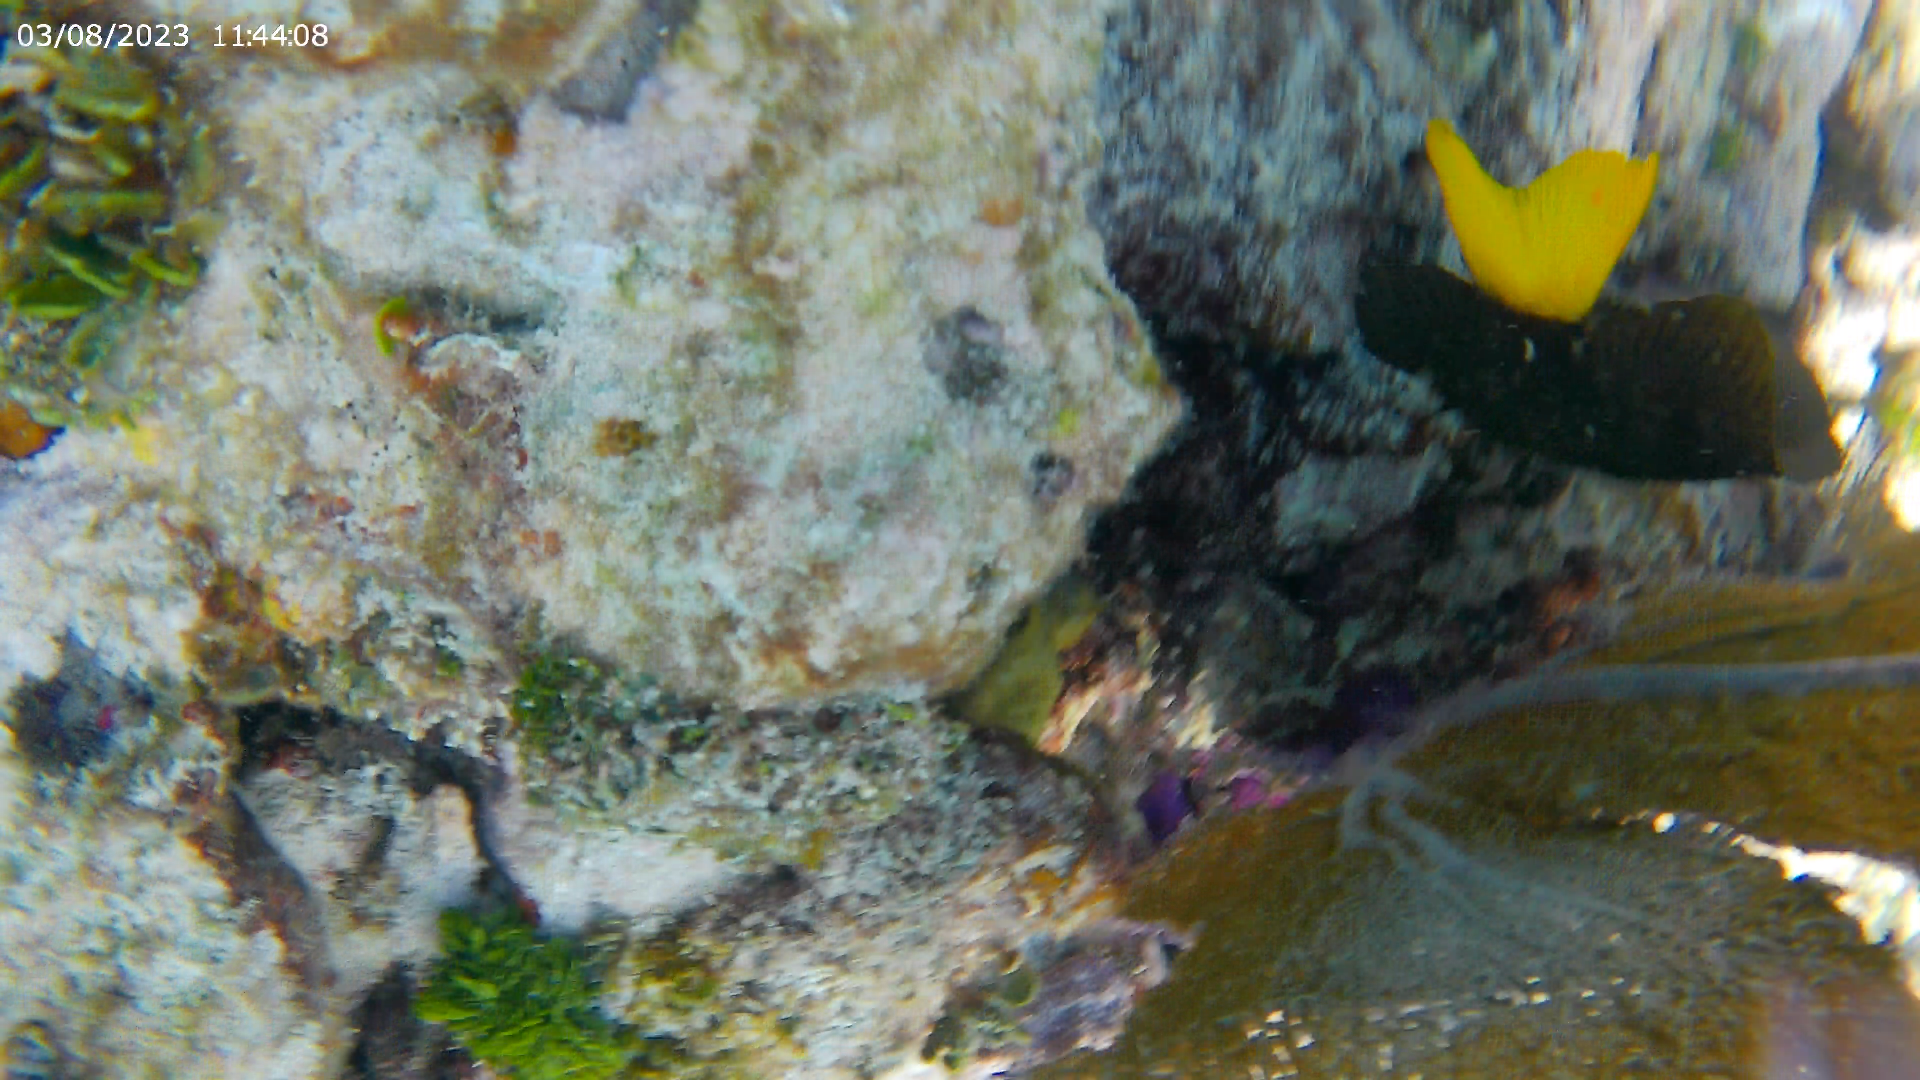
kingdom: Animalia
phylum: Chordata
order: Perciformes
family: Pomacentridae
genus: Microspathodon
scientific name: Microspathodon chrysurus
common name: Yellowtail damselfish
